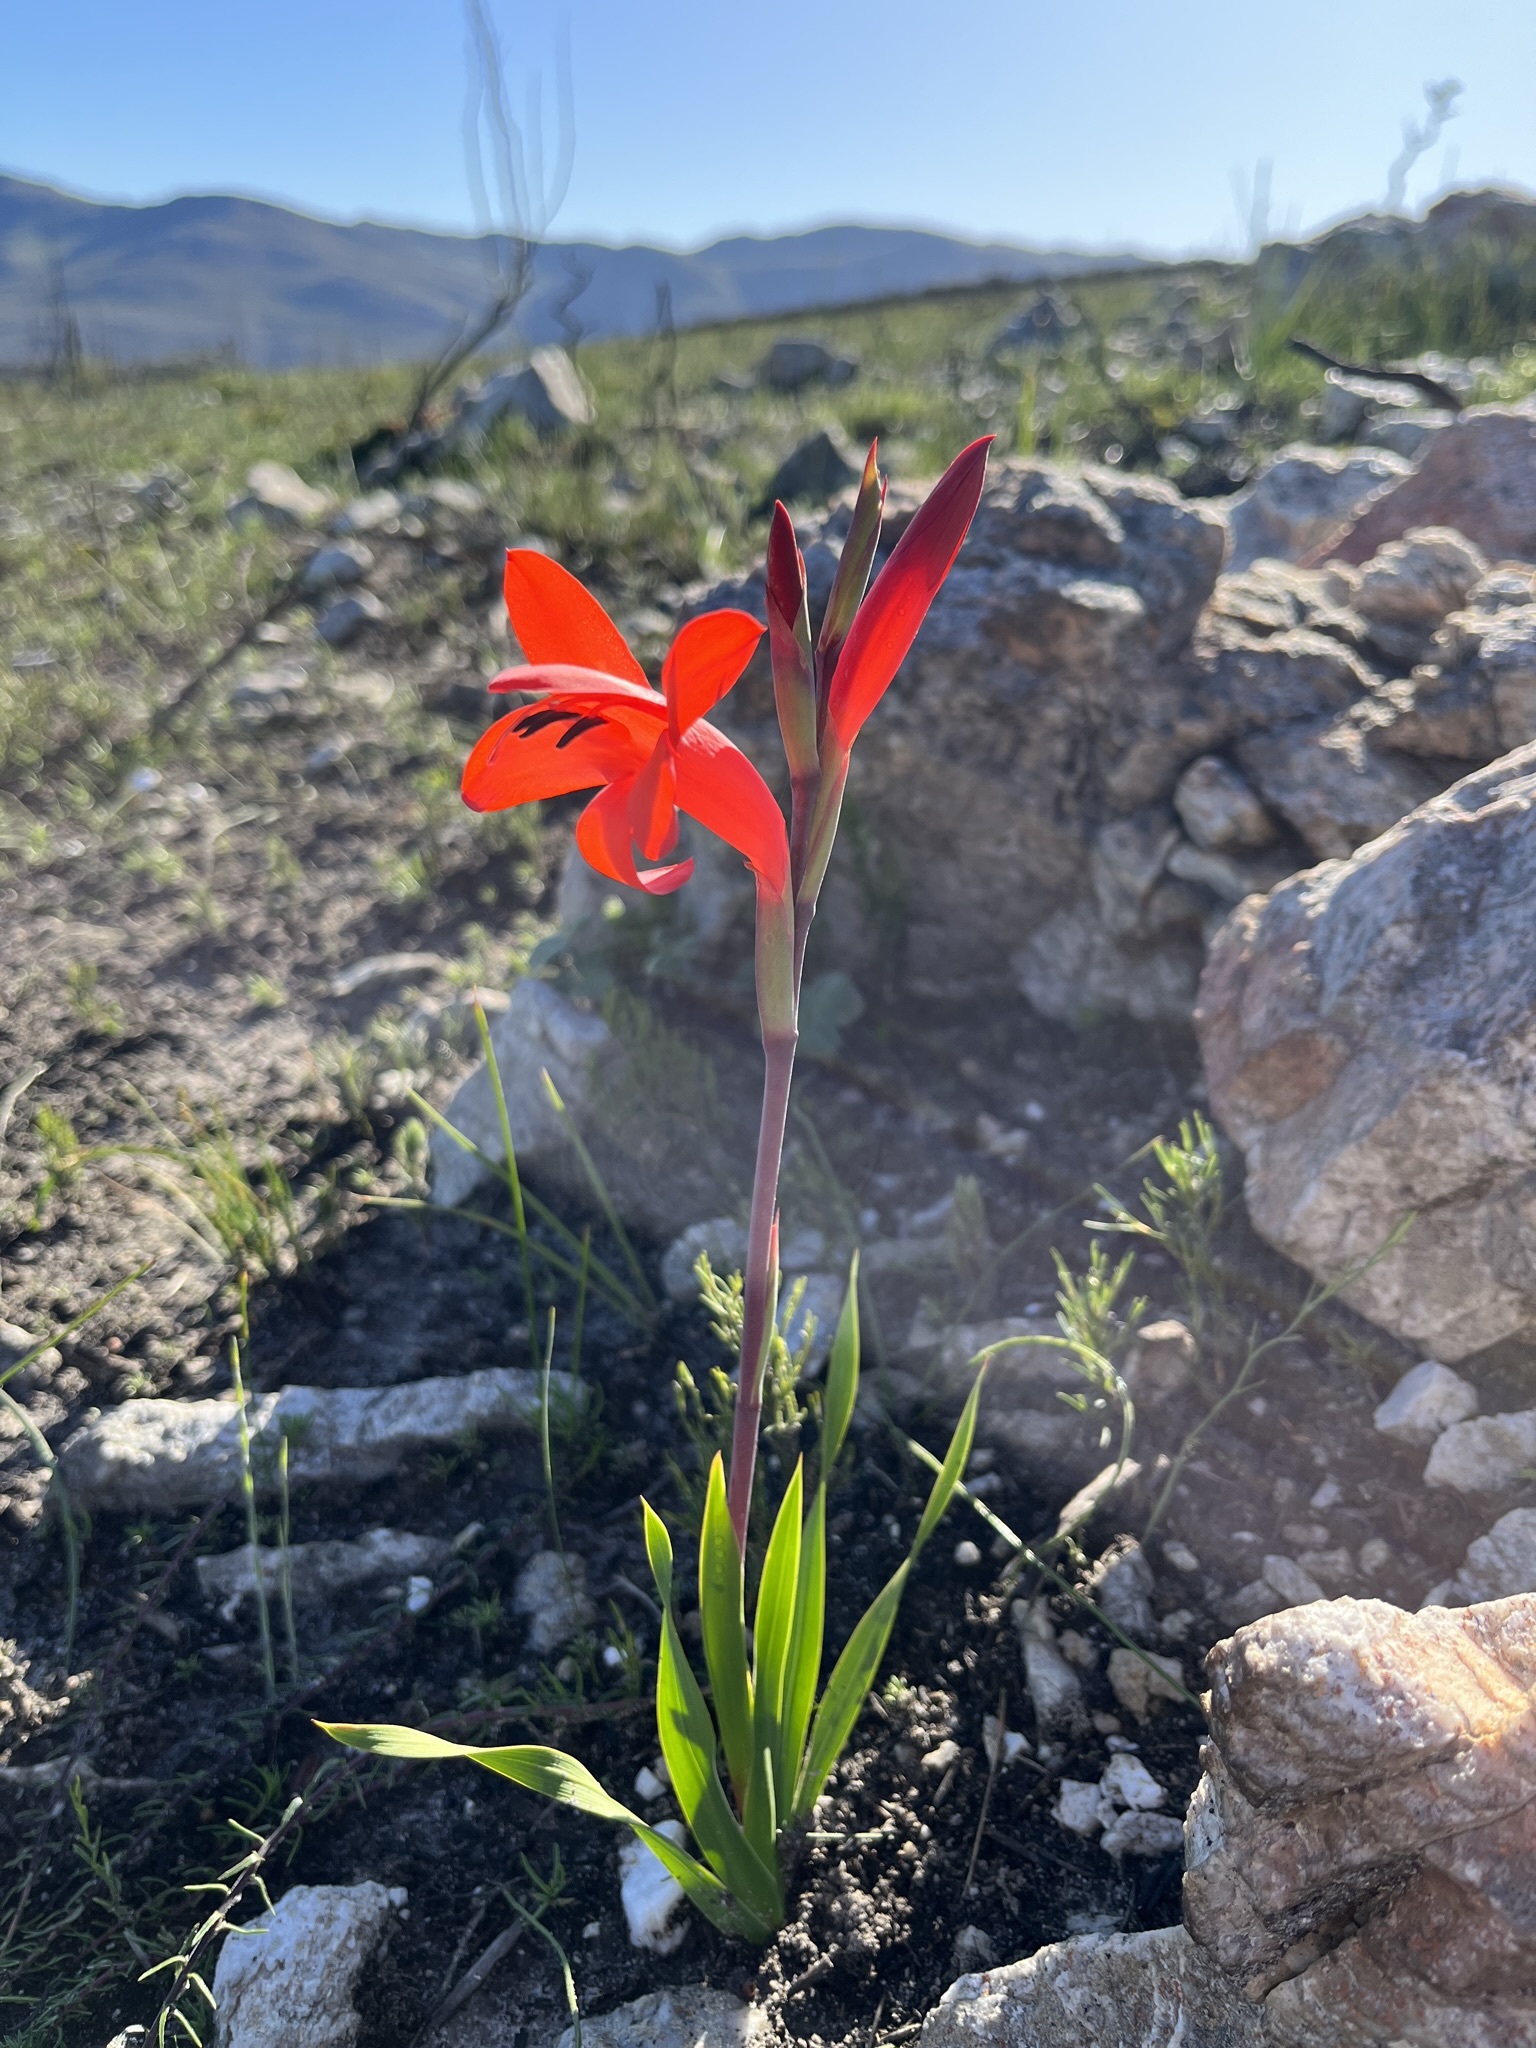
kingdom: Plantae
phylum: Tracheophyta
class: Liliopsida
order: Asparagales
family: Iridaceae
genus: Watsonia
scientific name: Watsonia coccinea
